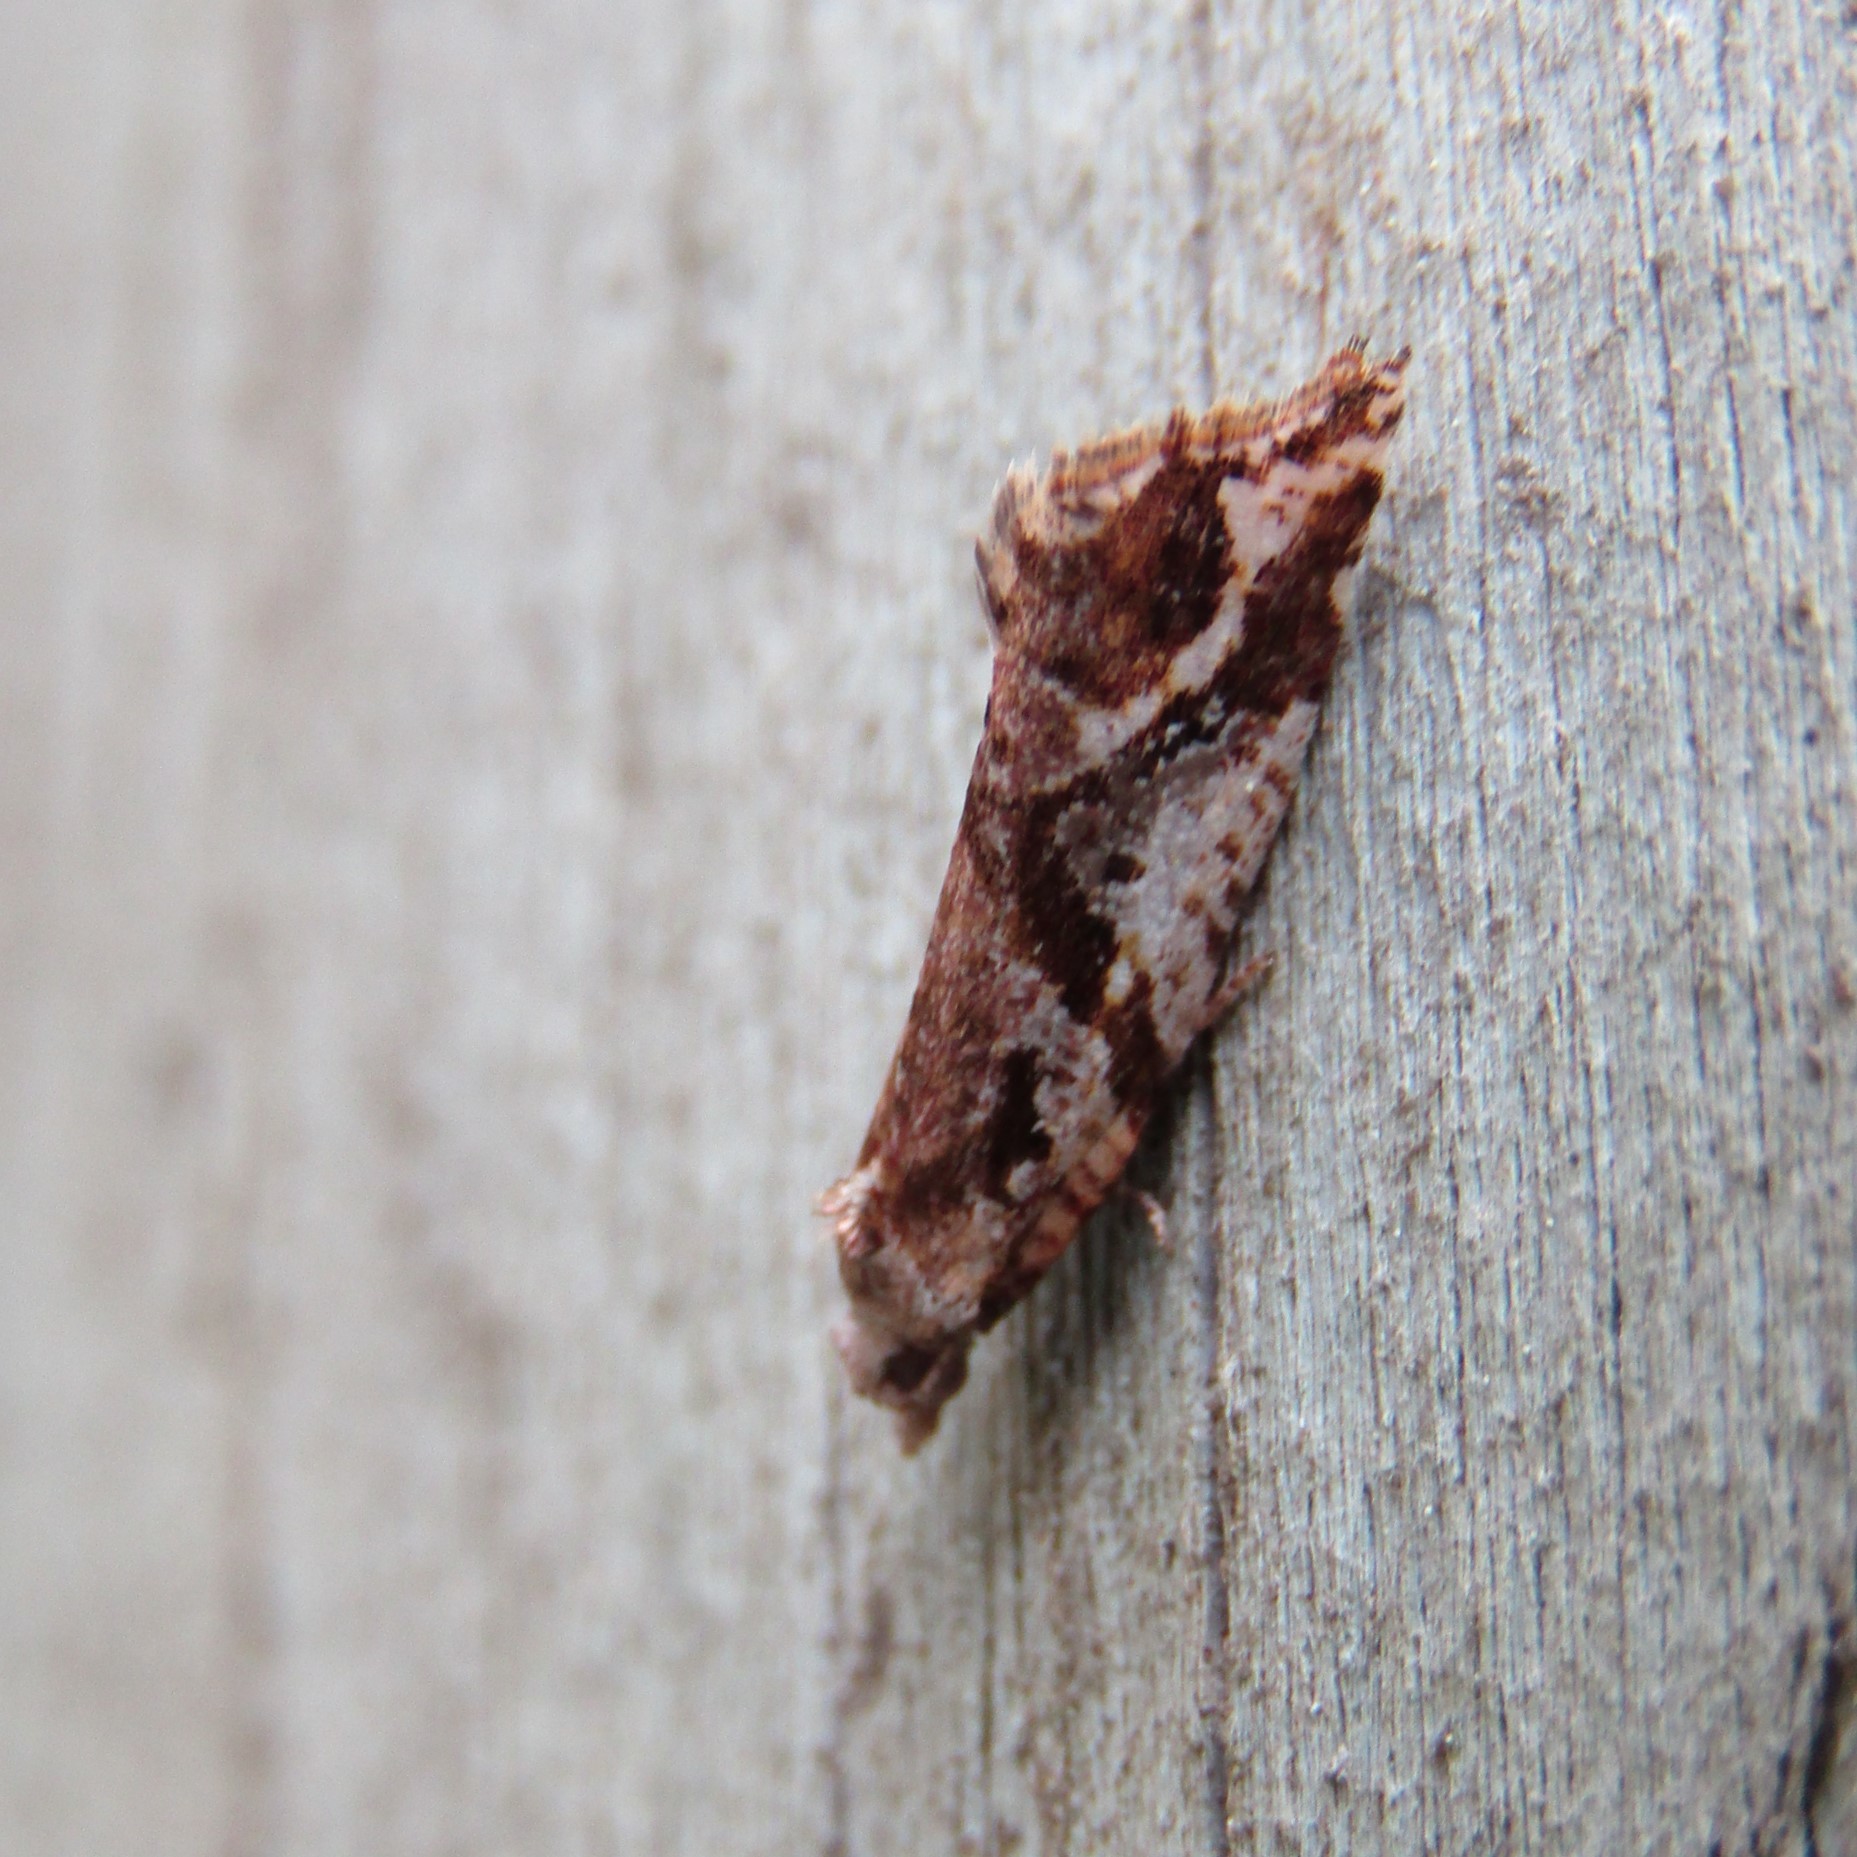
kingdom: Animalia
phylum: Arthropoda
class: Insecta
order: Lepidoptera
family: Tortricidae
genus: Pyrgotis
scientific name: Pyrgotis plagiatana
